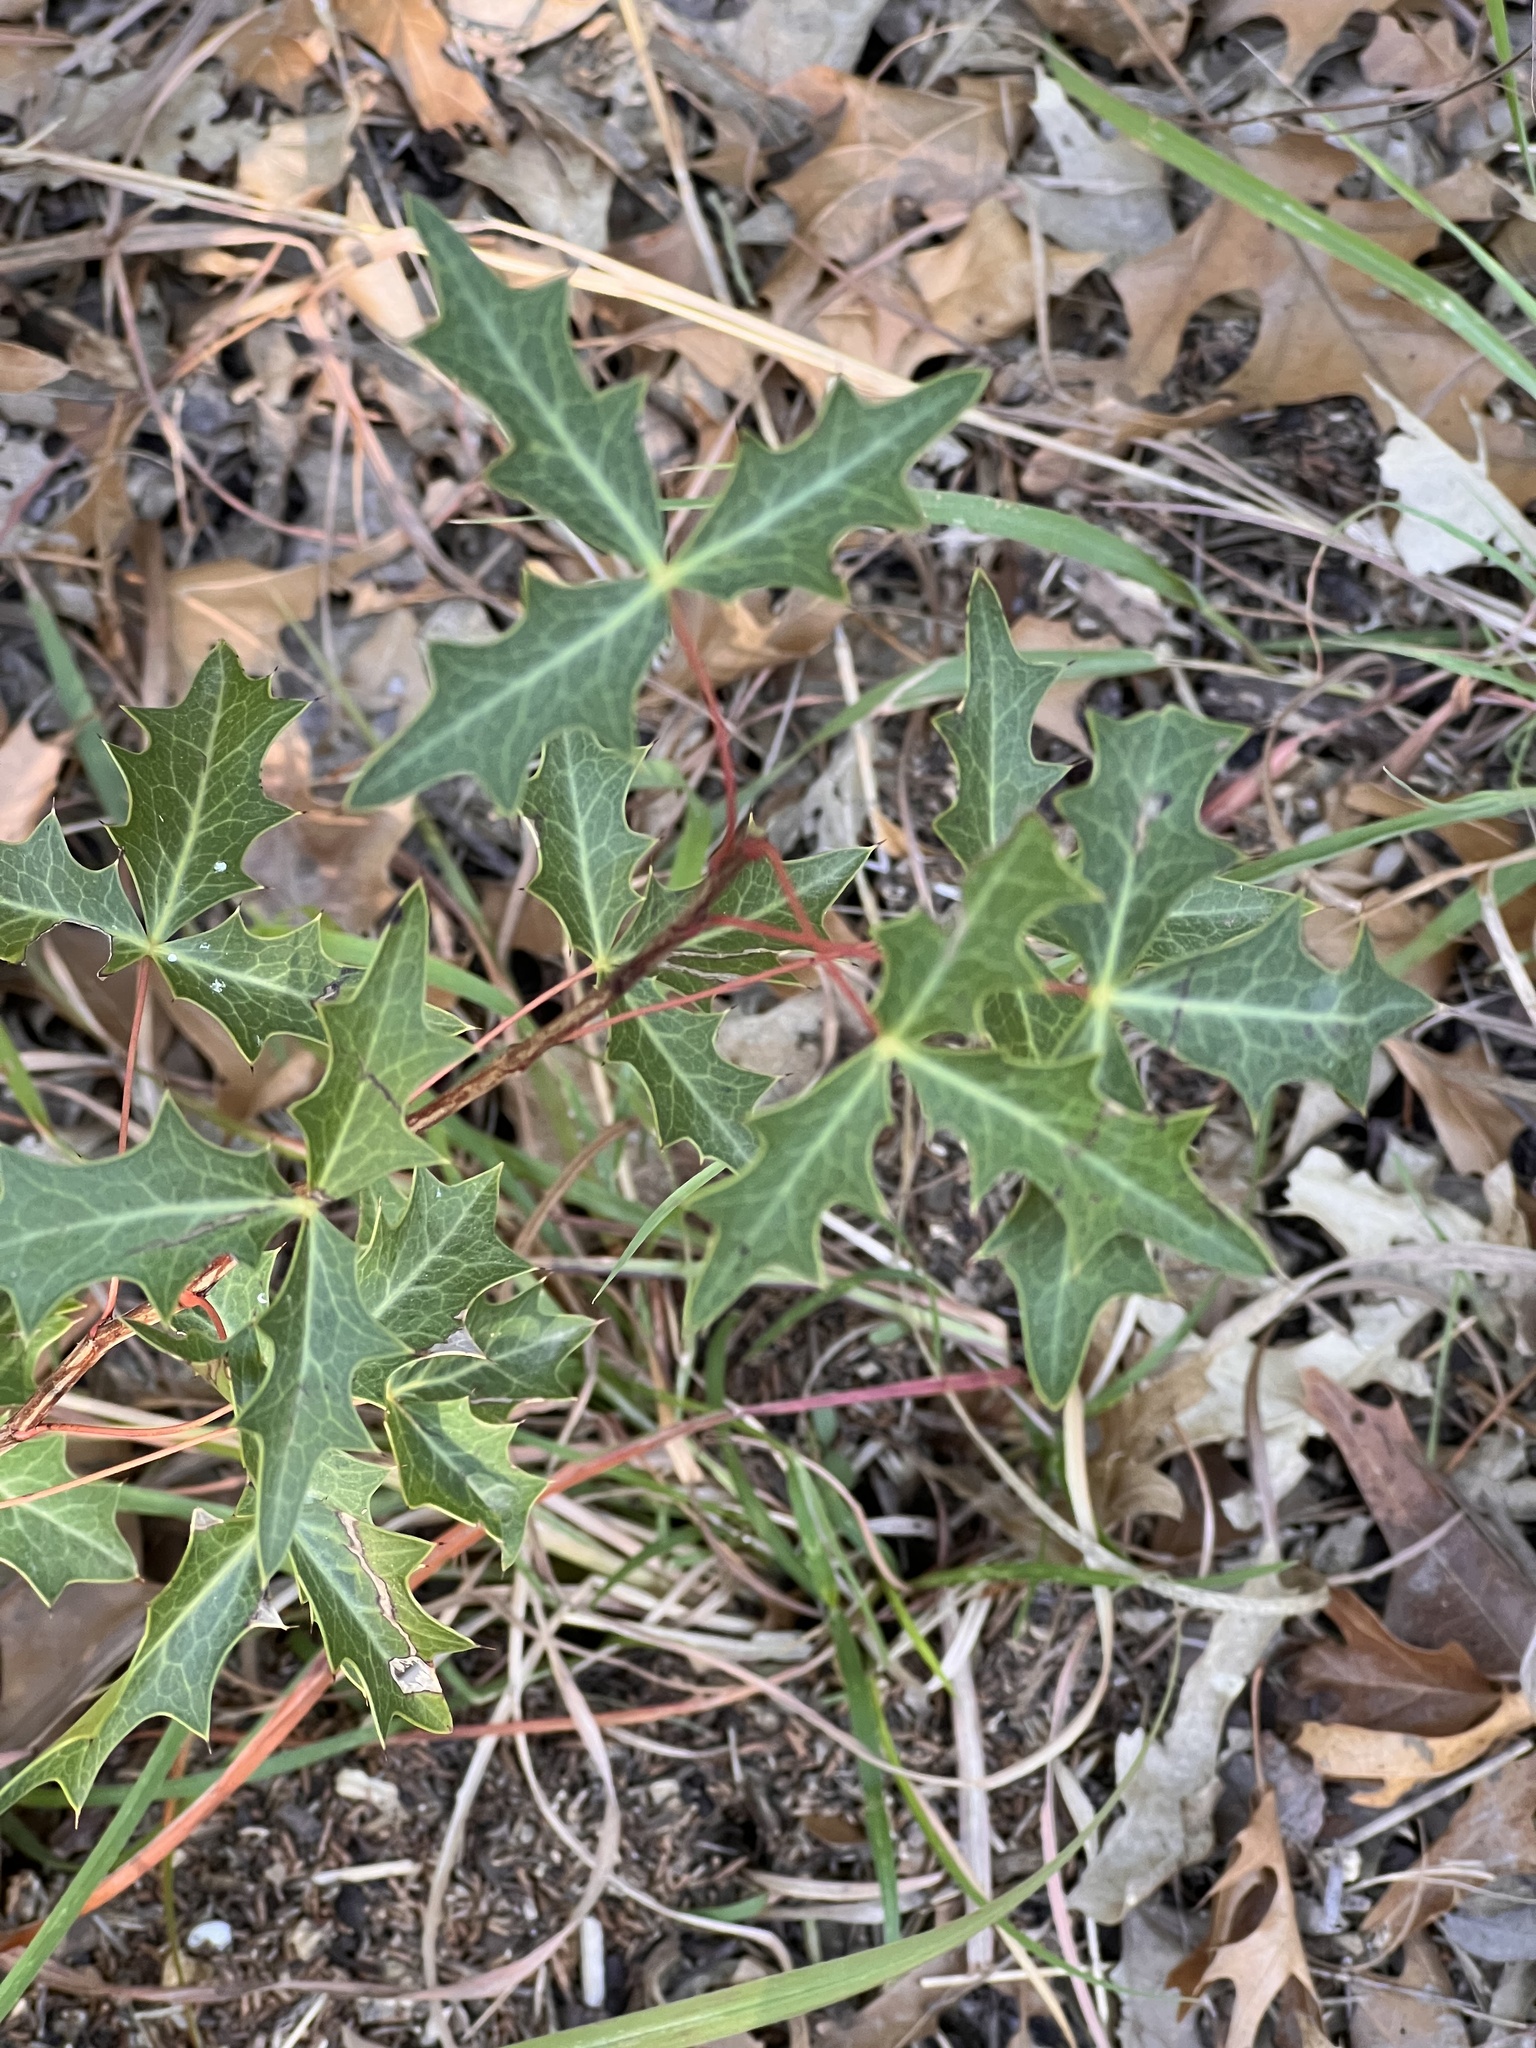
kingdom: Plantae
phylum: Tracheophyta
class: Magnoliopsida
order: Ranunculales
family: Berberidaceae
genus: Alloberberis
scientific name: Alloberberis trifoliolata
